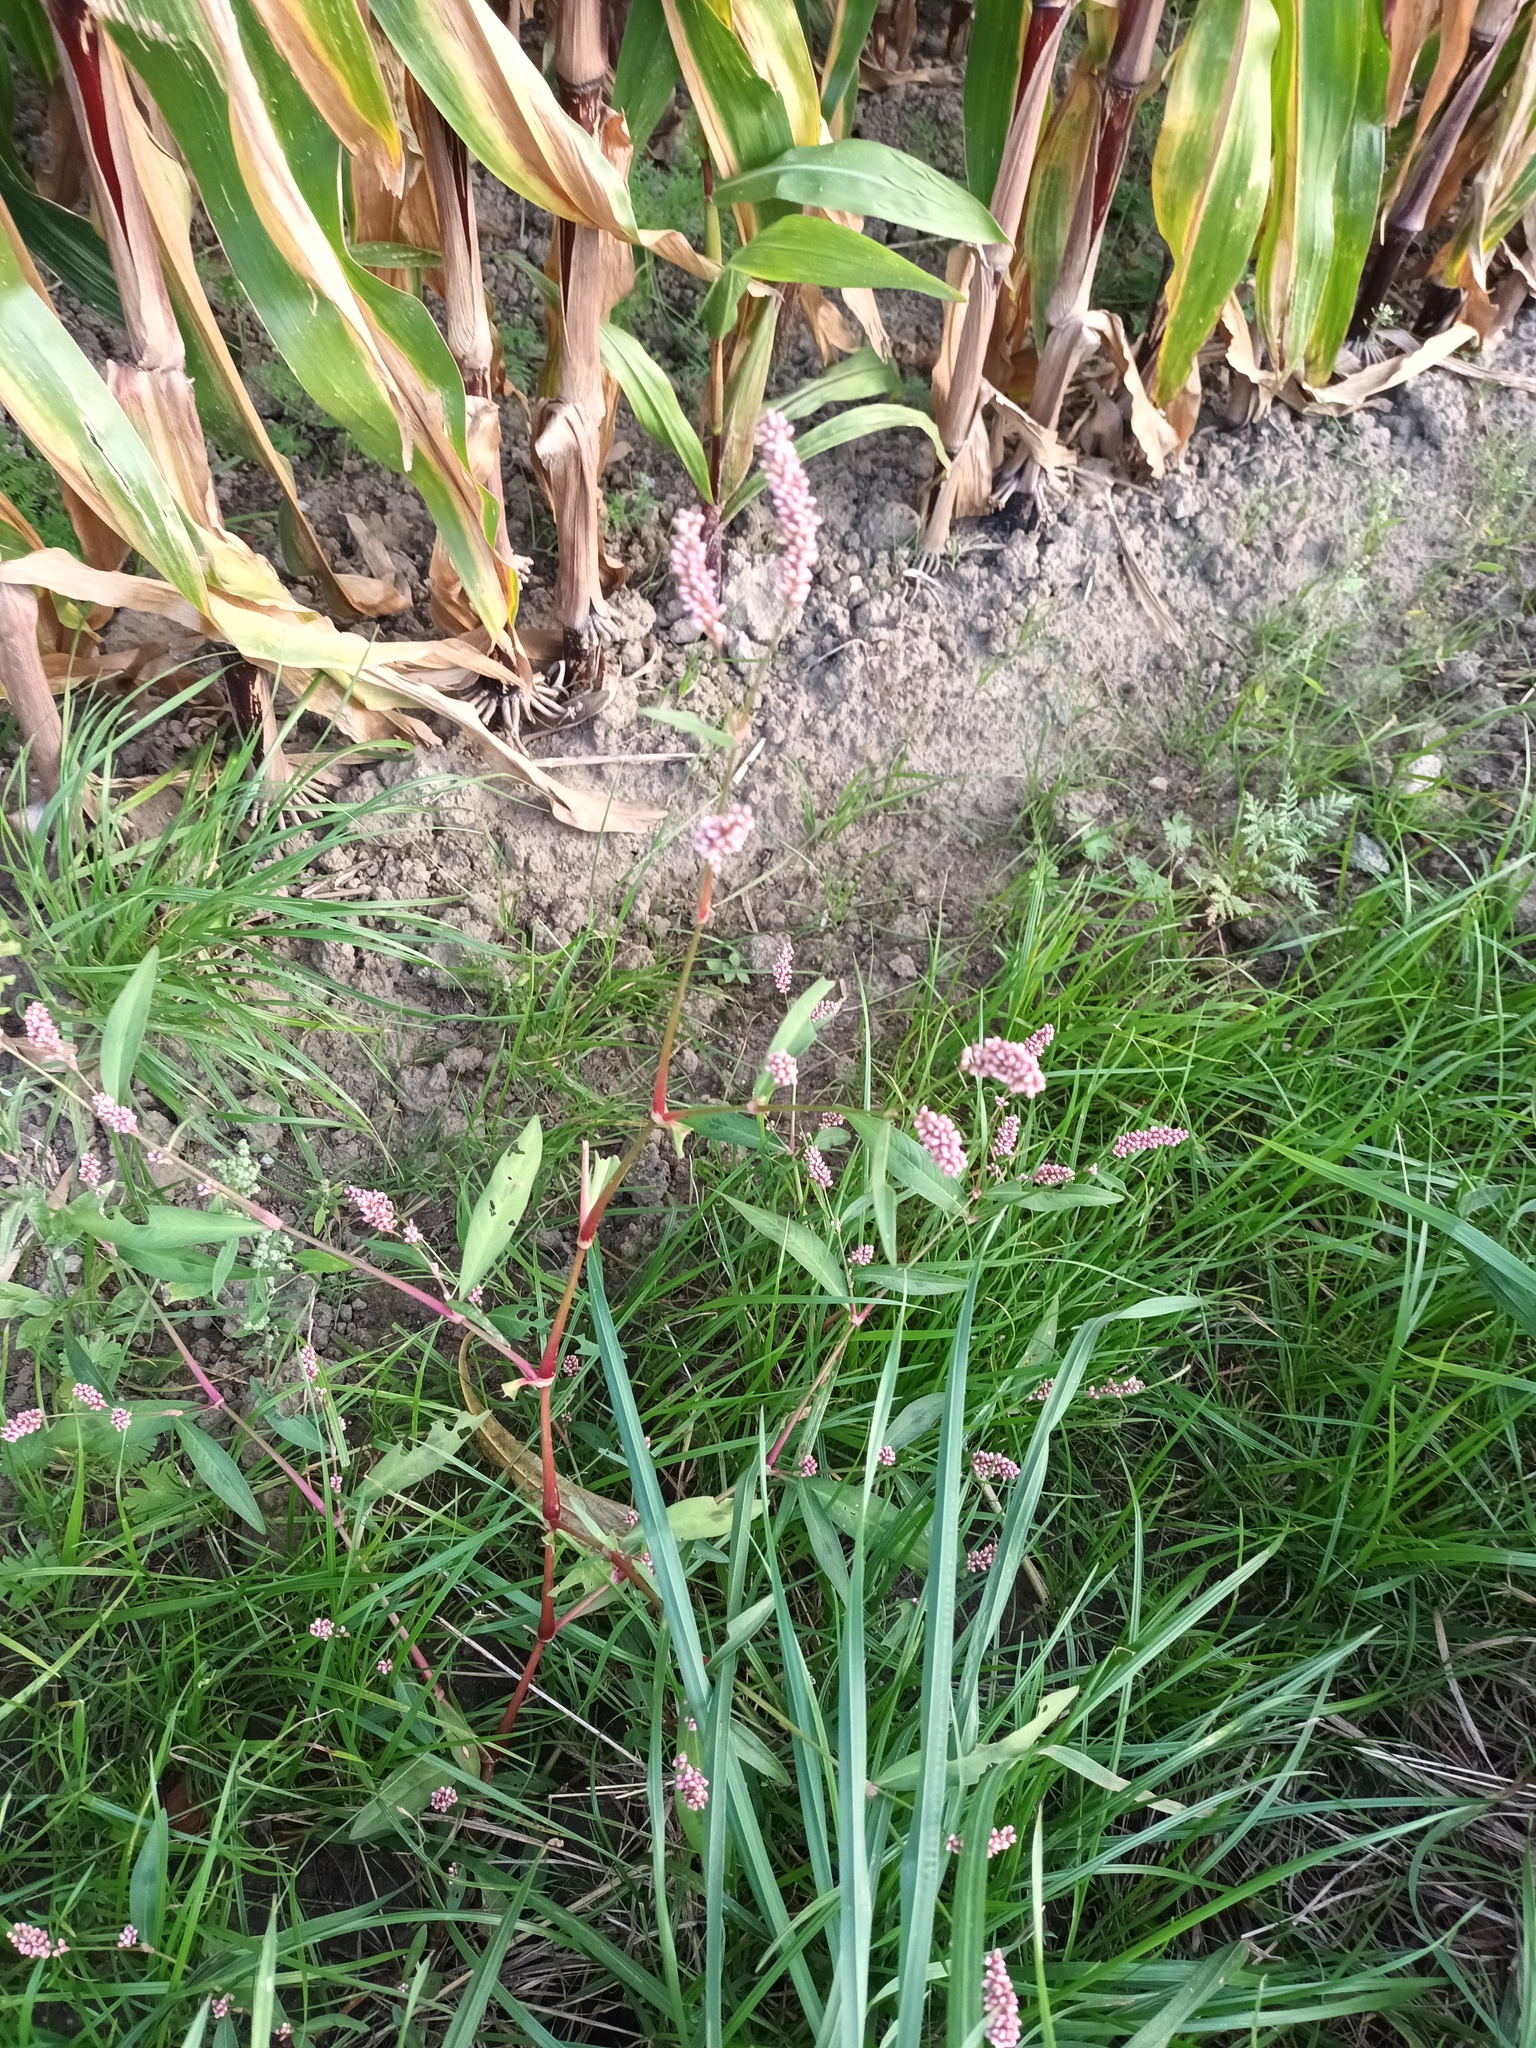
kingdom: Plantae
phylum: Tracheophyta
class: Magnoliopsida
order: Caryophyllales
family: Polygonaceae
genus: Persicaria
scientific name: Persicaria maculosa
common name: Redshank
